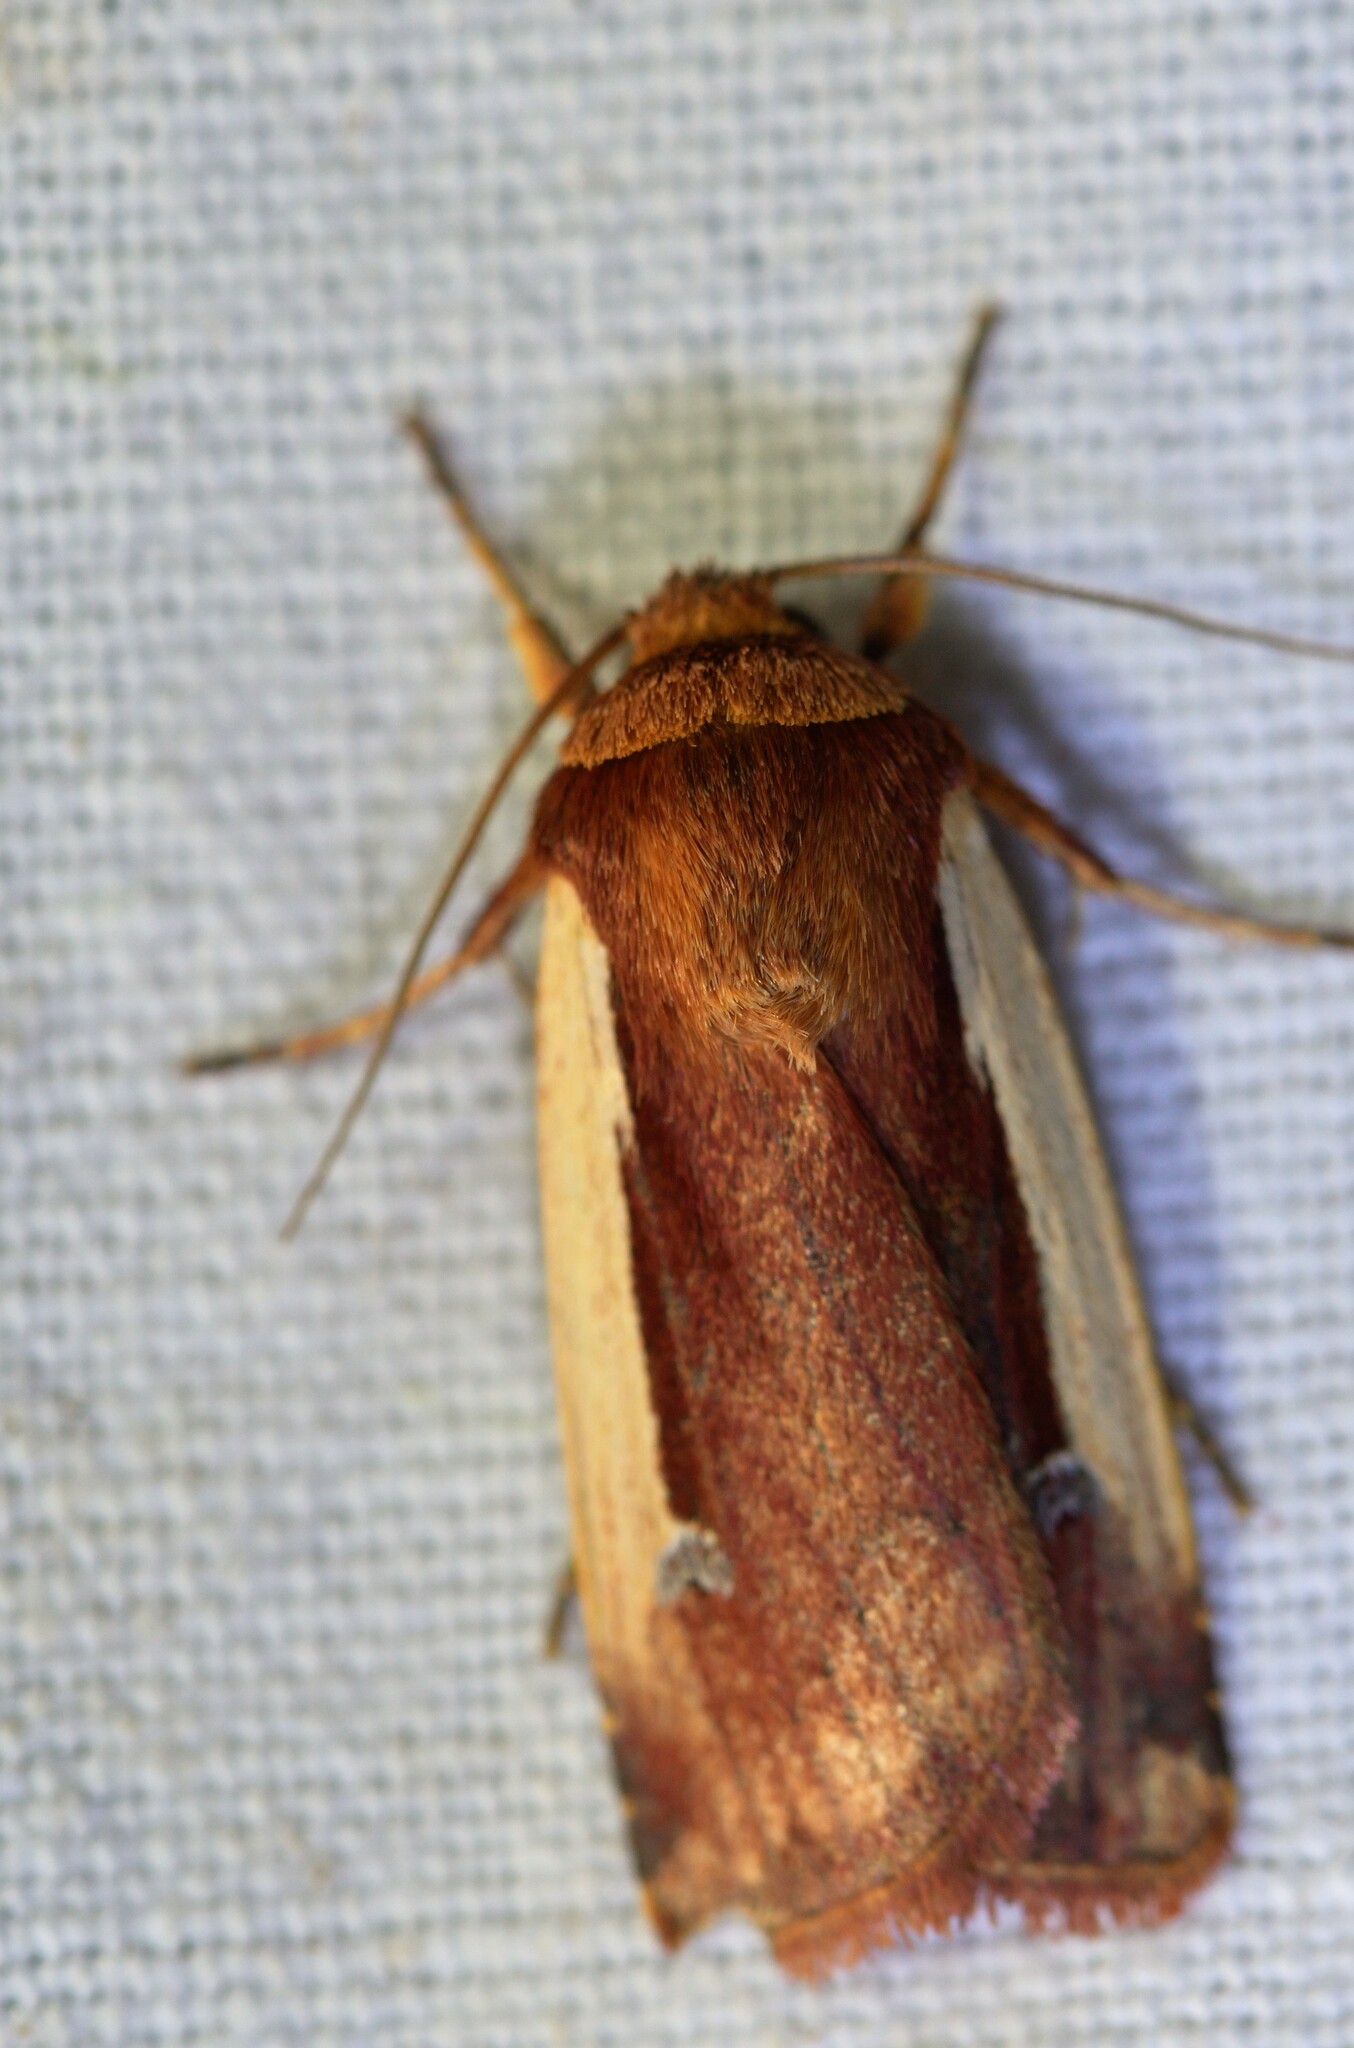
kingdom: Animalia
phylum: Arthropoda
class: Insecta
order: Lepidoptera
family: Noctuidae
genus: Ochropleura
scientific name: Ochropleura plecta
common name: Flame shoulder
